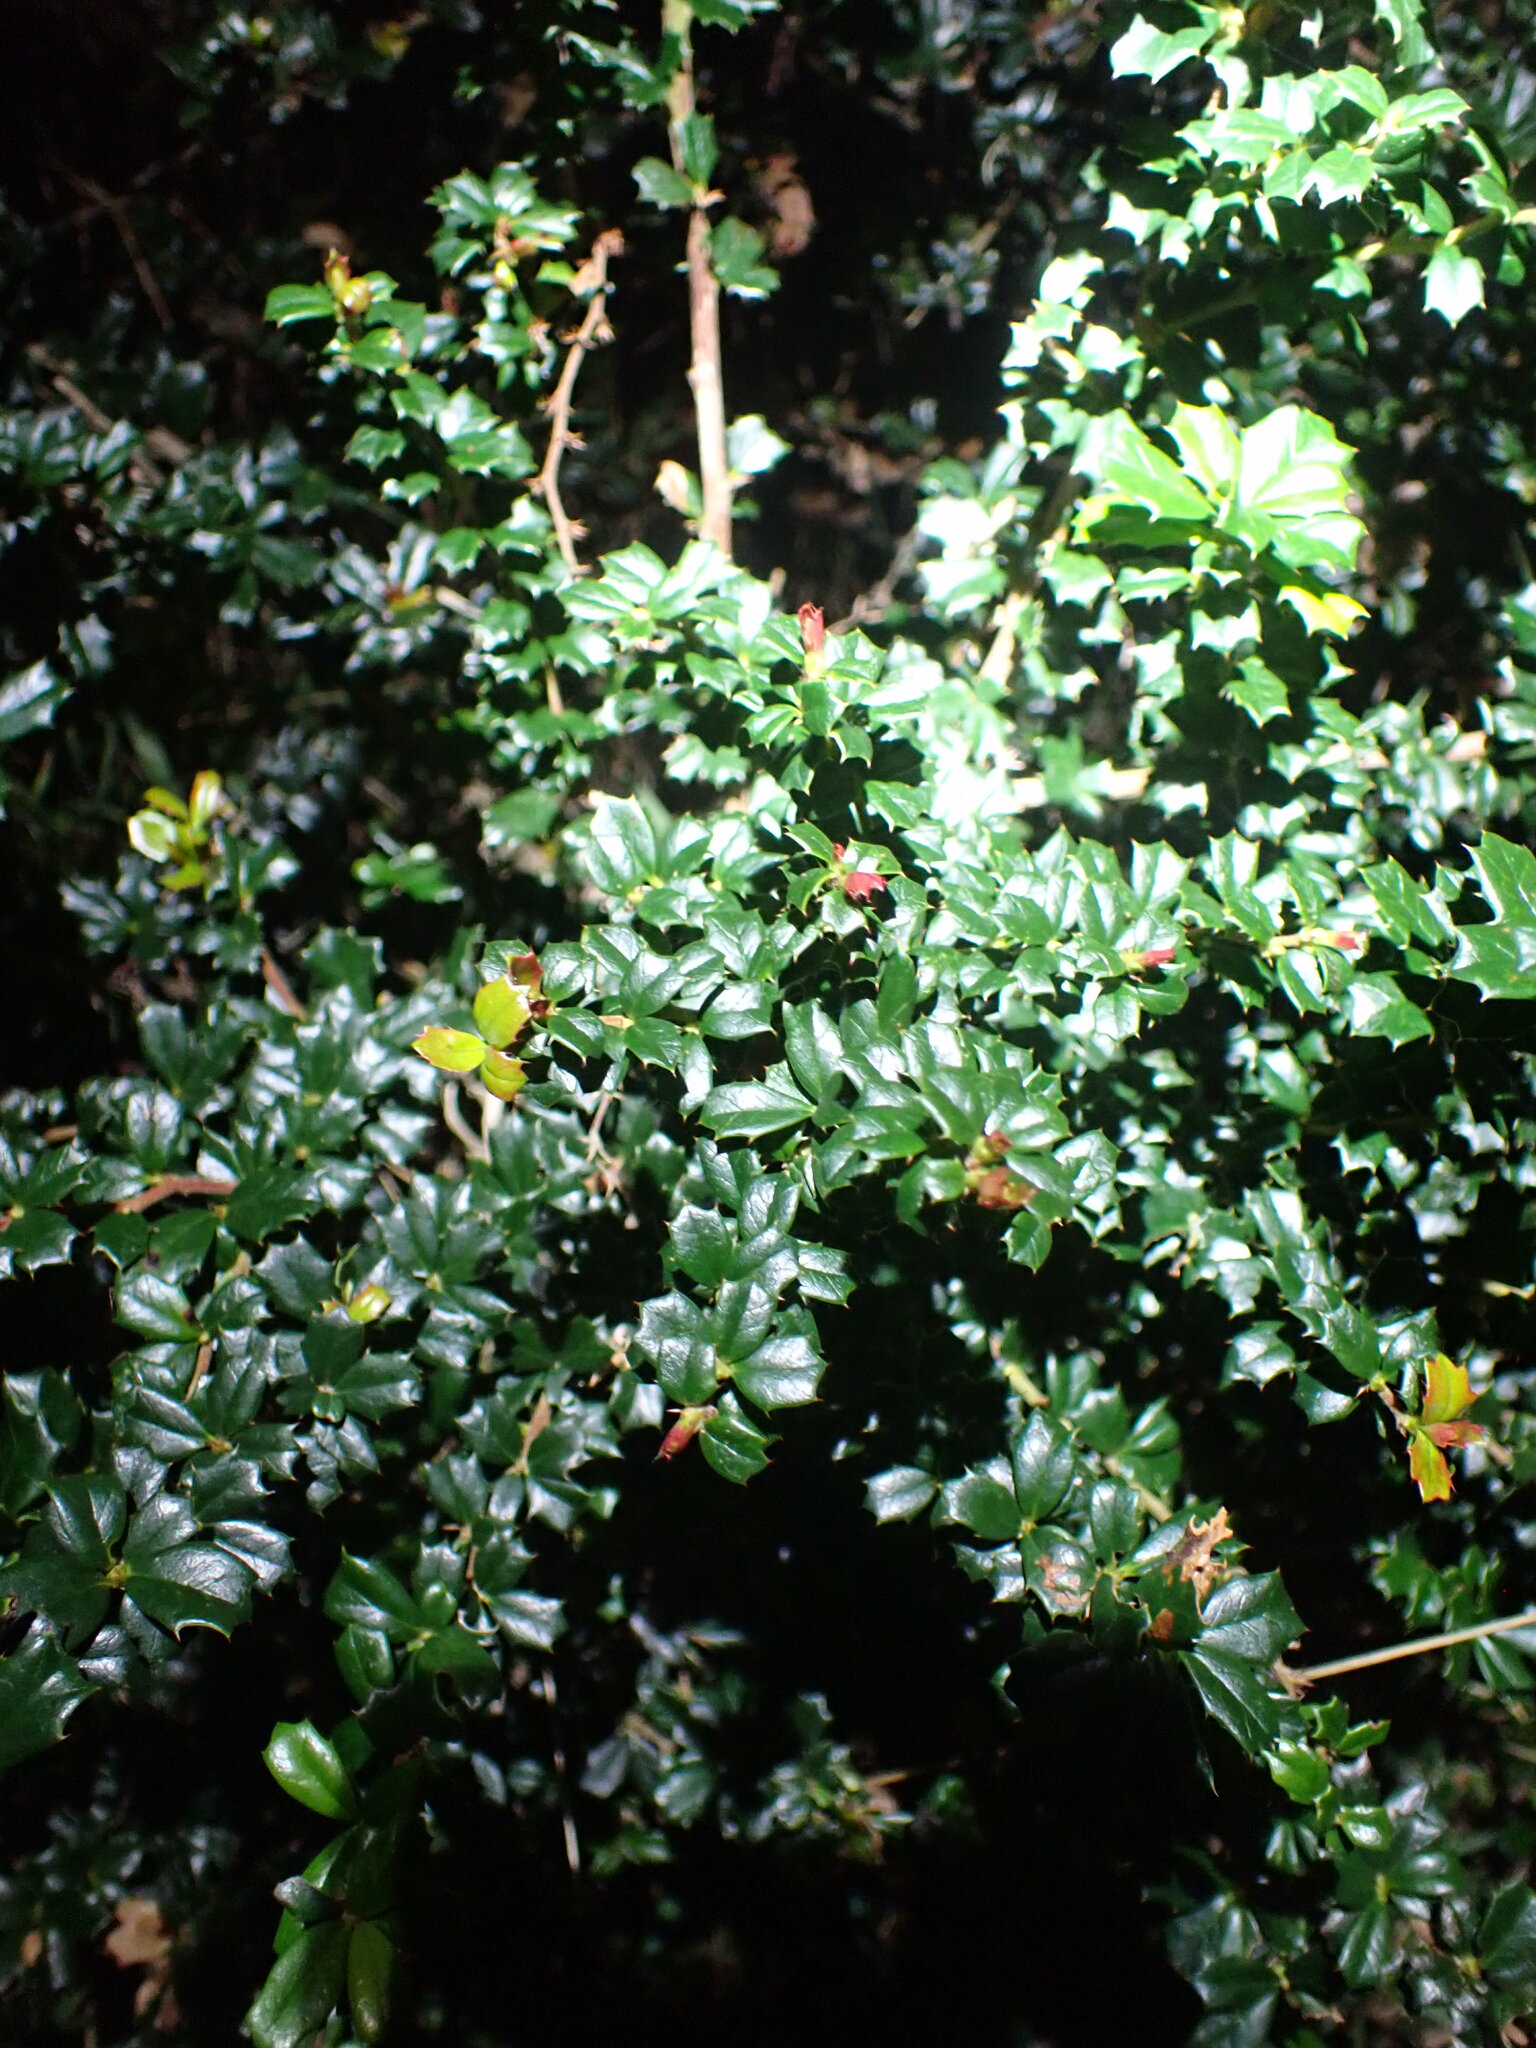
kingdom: Plantae
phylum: Tracheophyta
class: Magnoliopsida
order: Ranunculales
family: Berberidaceae
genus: Berberis
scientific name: Berberis darwinii
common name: Darwin's barberry
